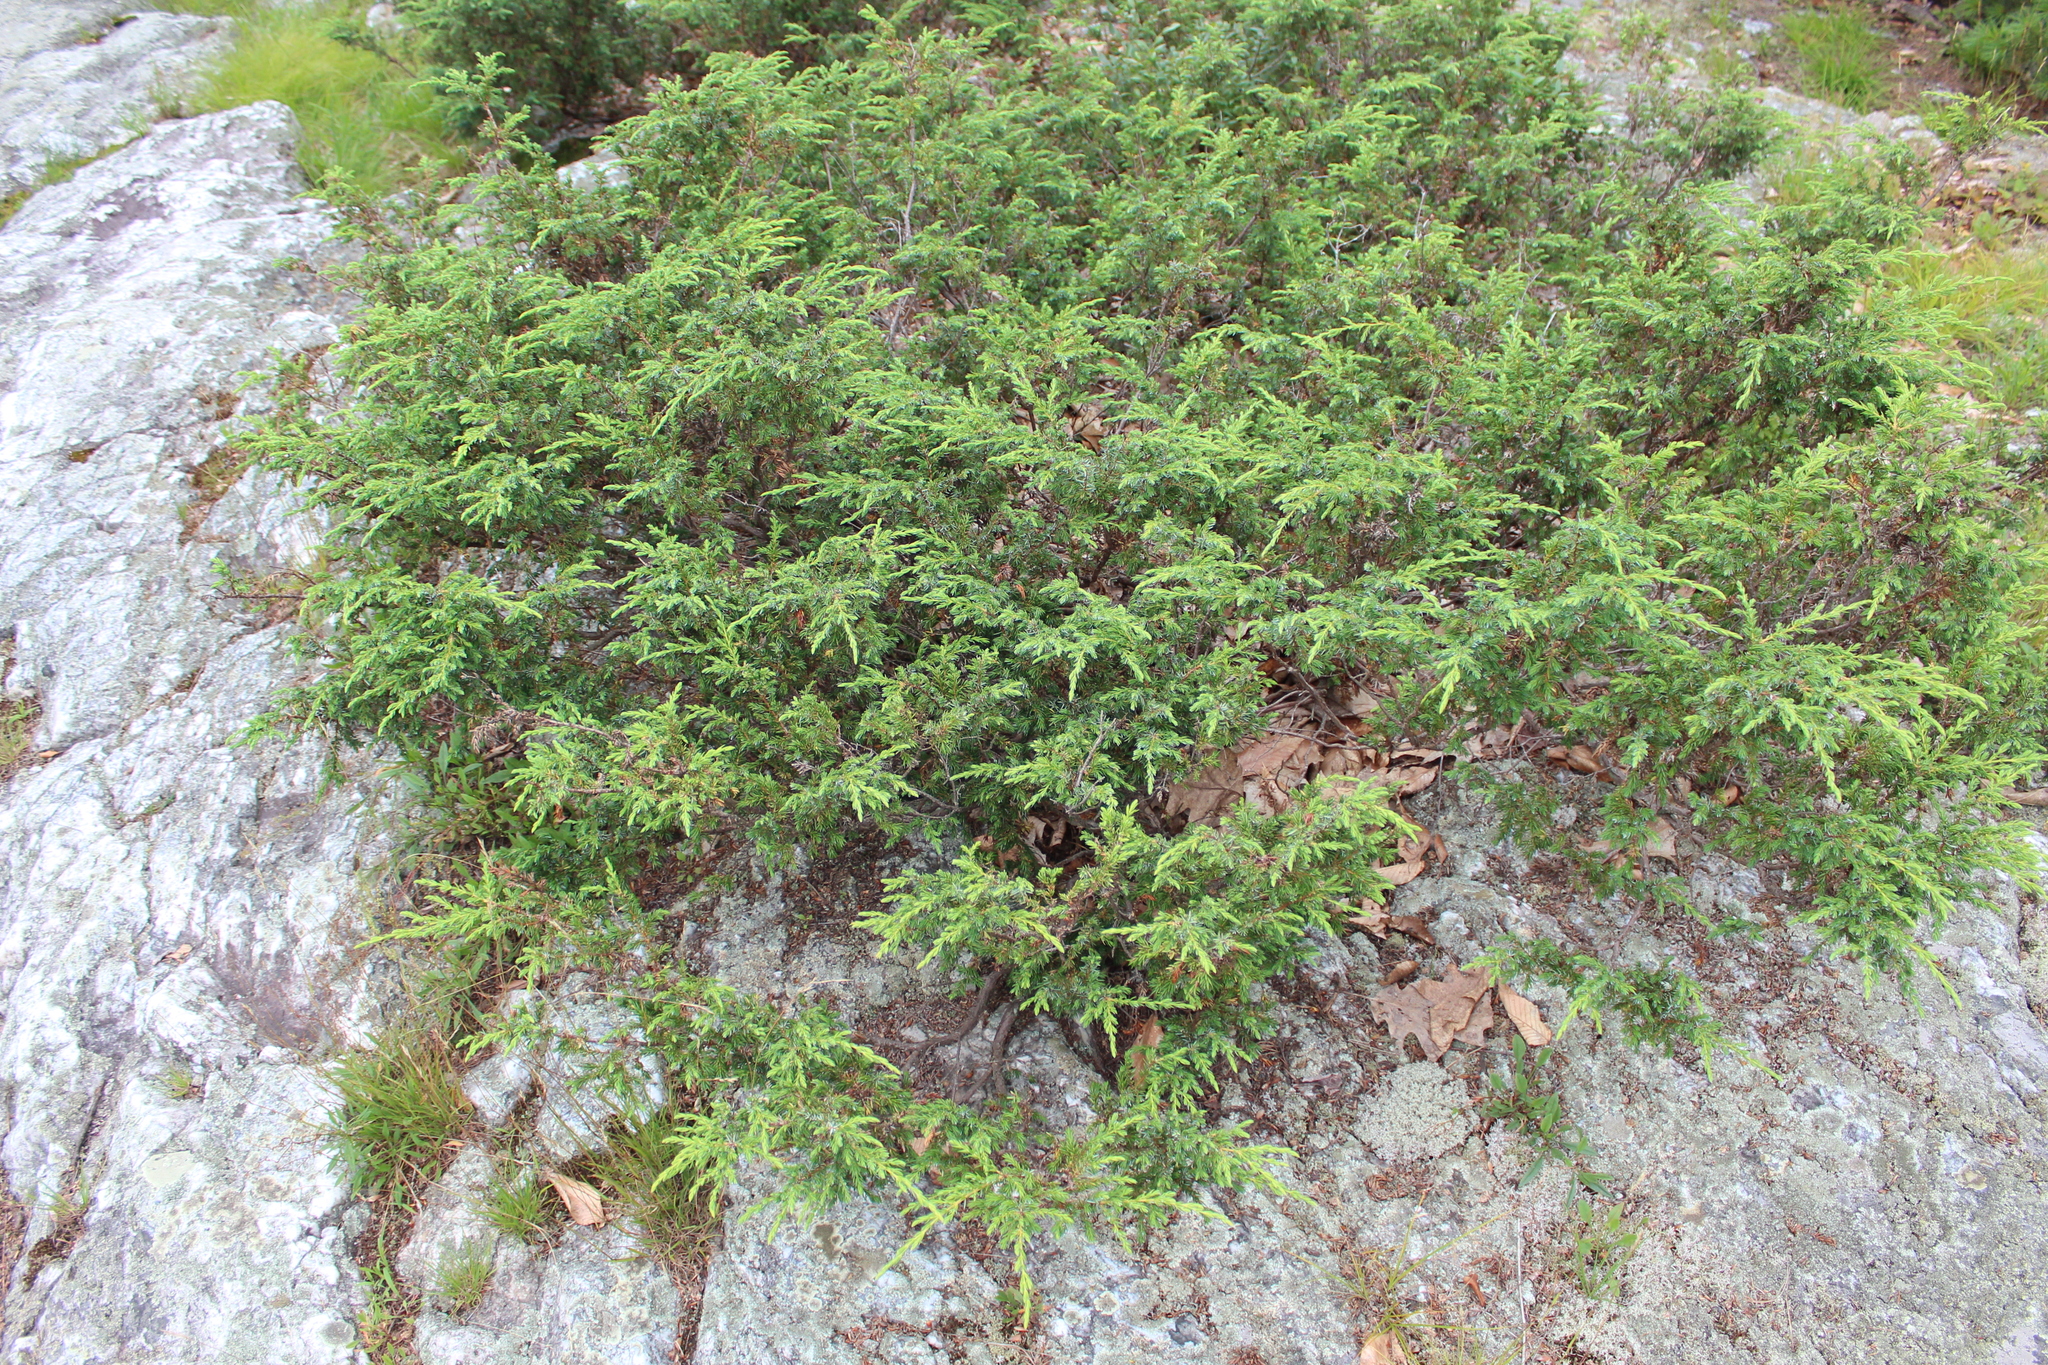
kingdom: Plantae
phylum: Tracheophyta
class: Pinopsida
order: Pinales
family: Cupressaceae
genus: Juniperus
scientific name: Juniperus communis
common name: Common juniper
